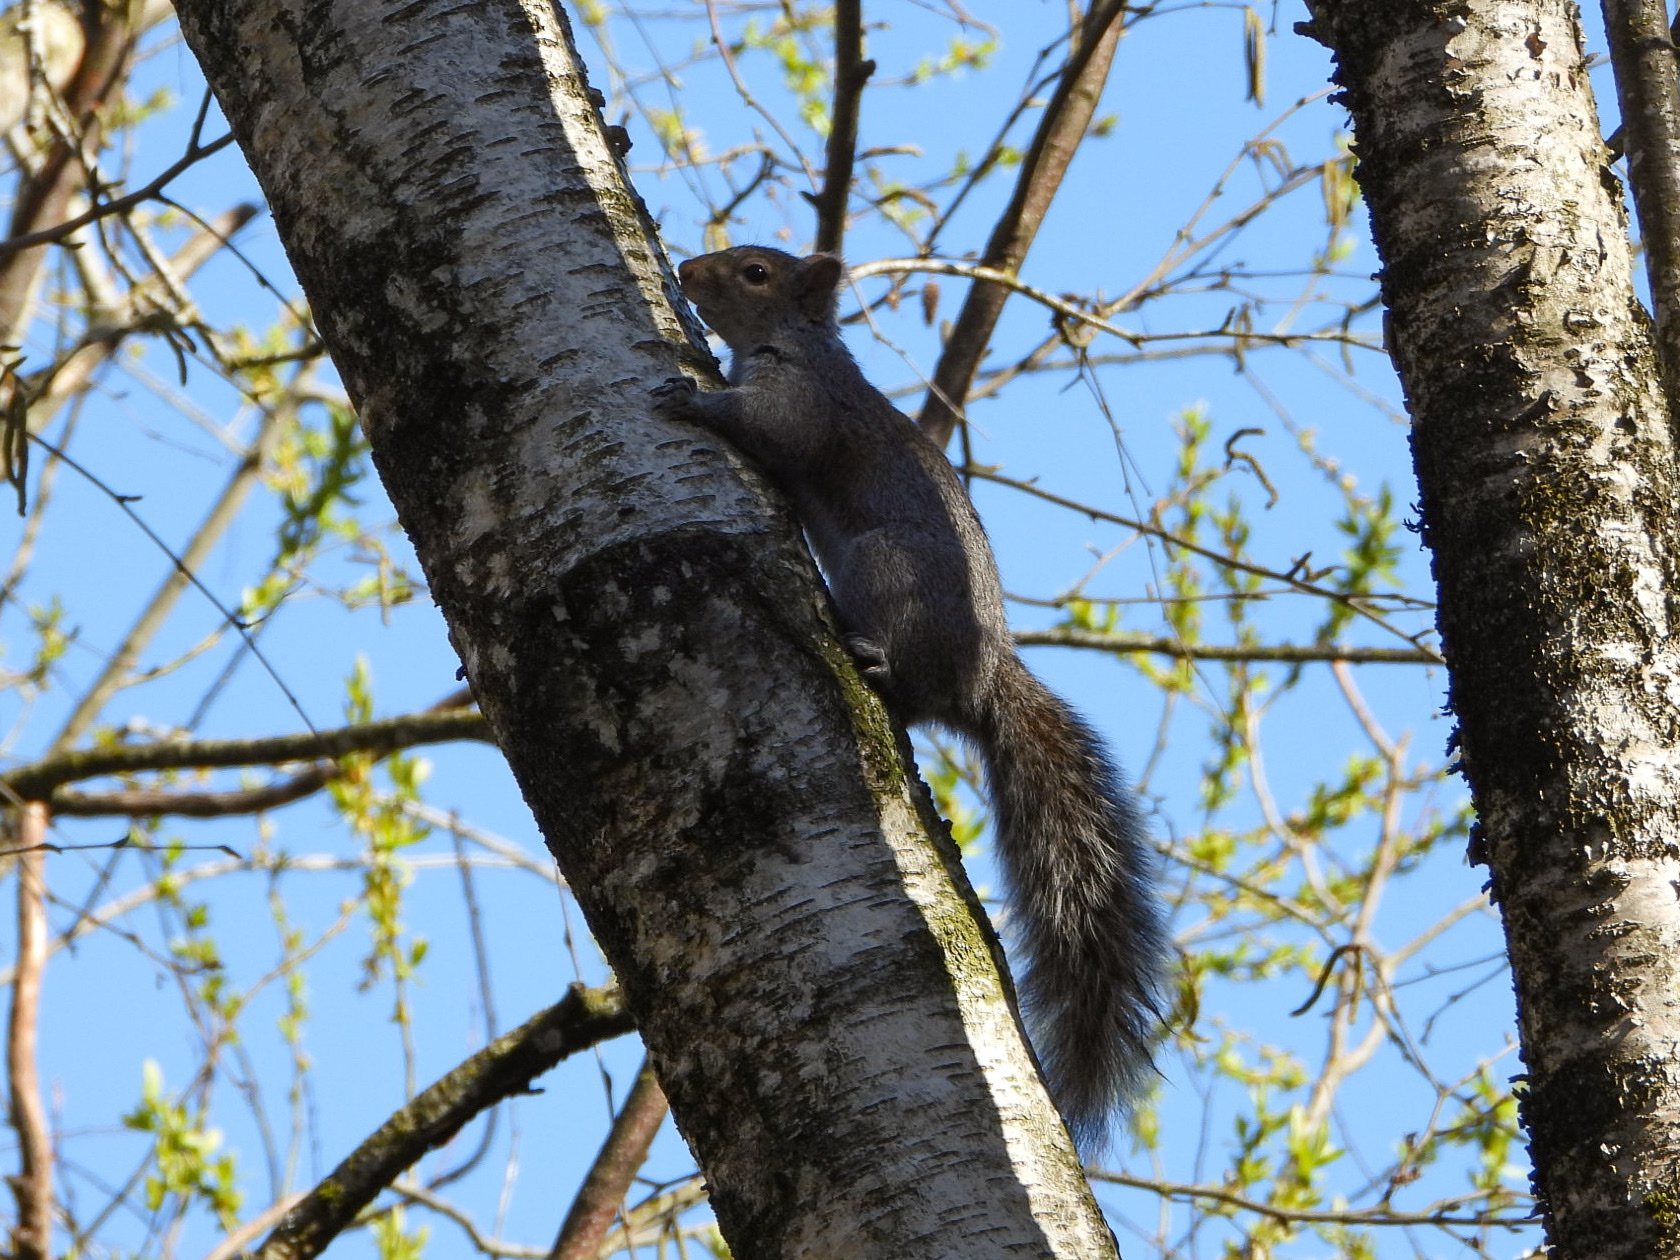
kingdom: Animalia
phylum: Chordata
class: Mammalia
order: Rodentia
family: Sciuridae
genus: Sciurus
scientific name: Sciurus carolinensis
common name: Eastern gray squirrel
